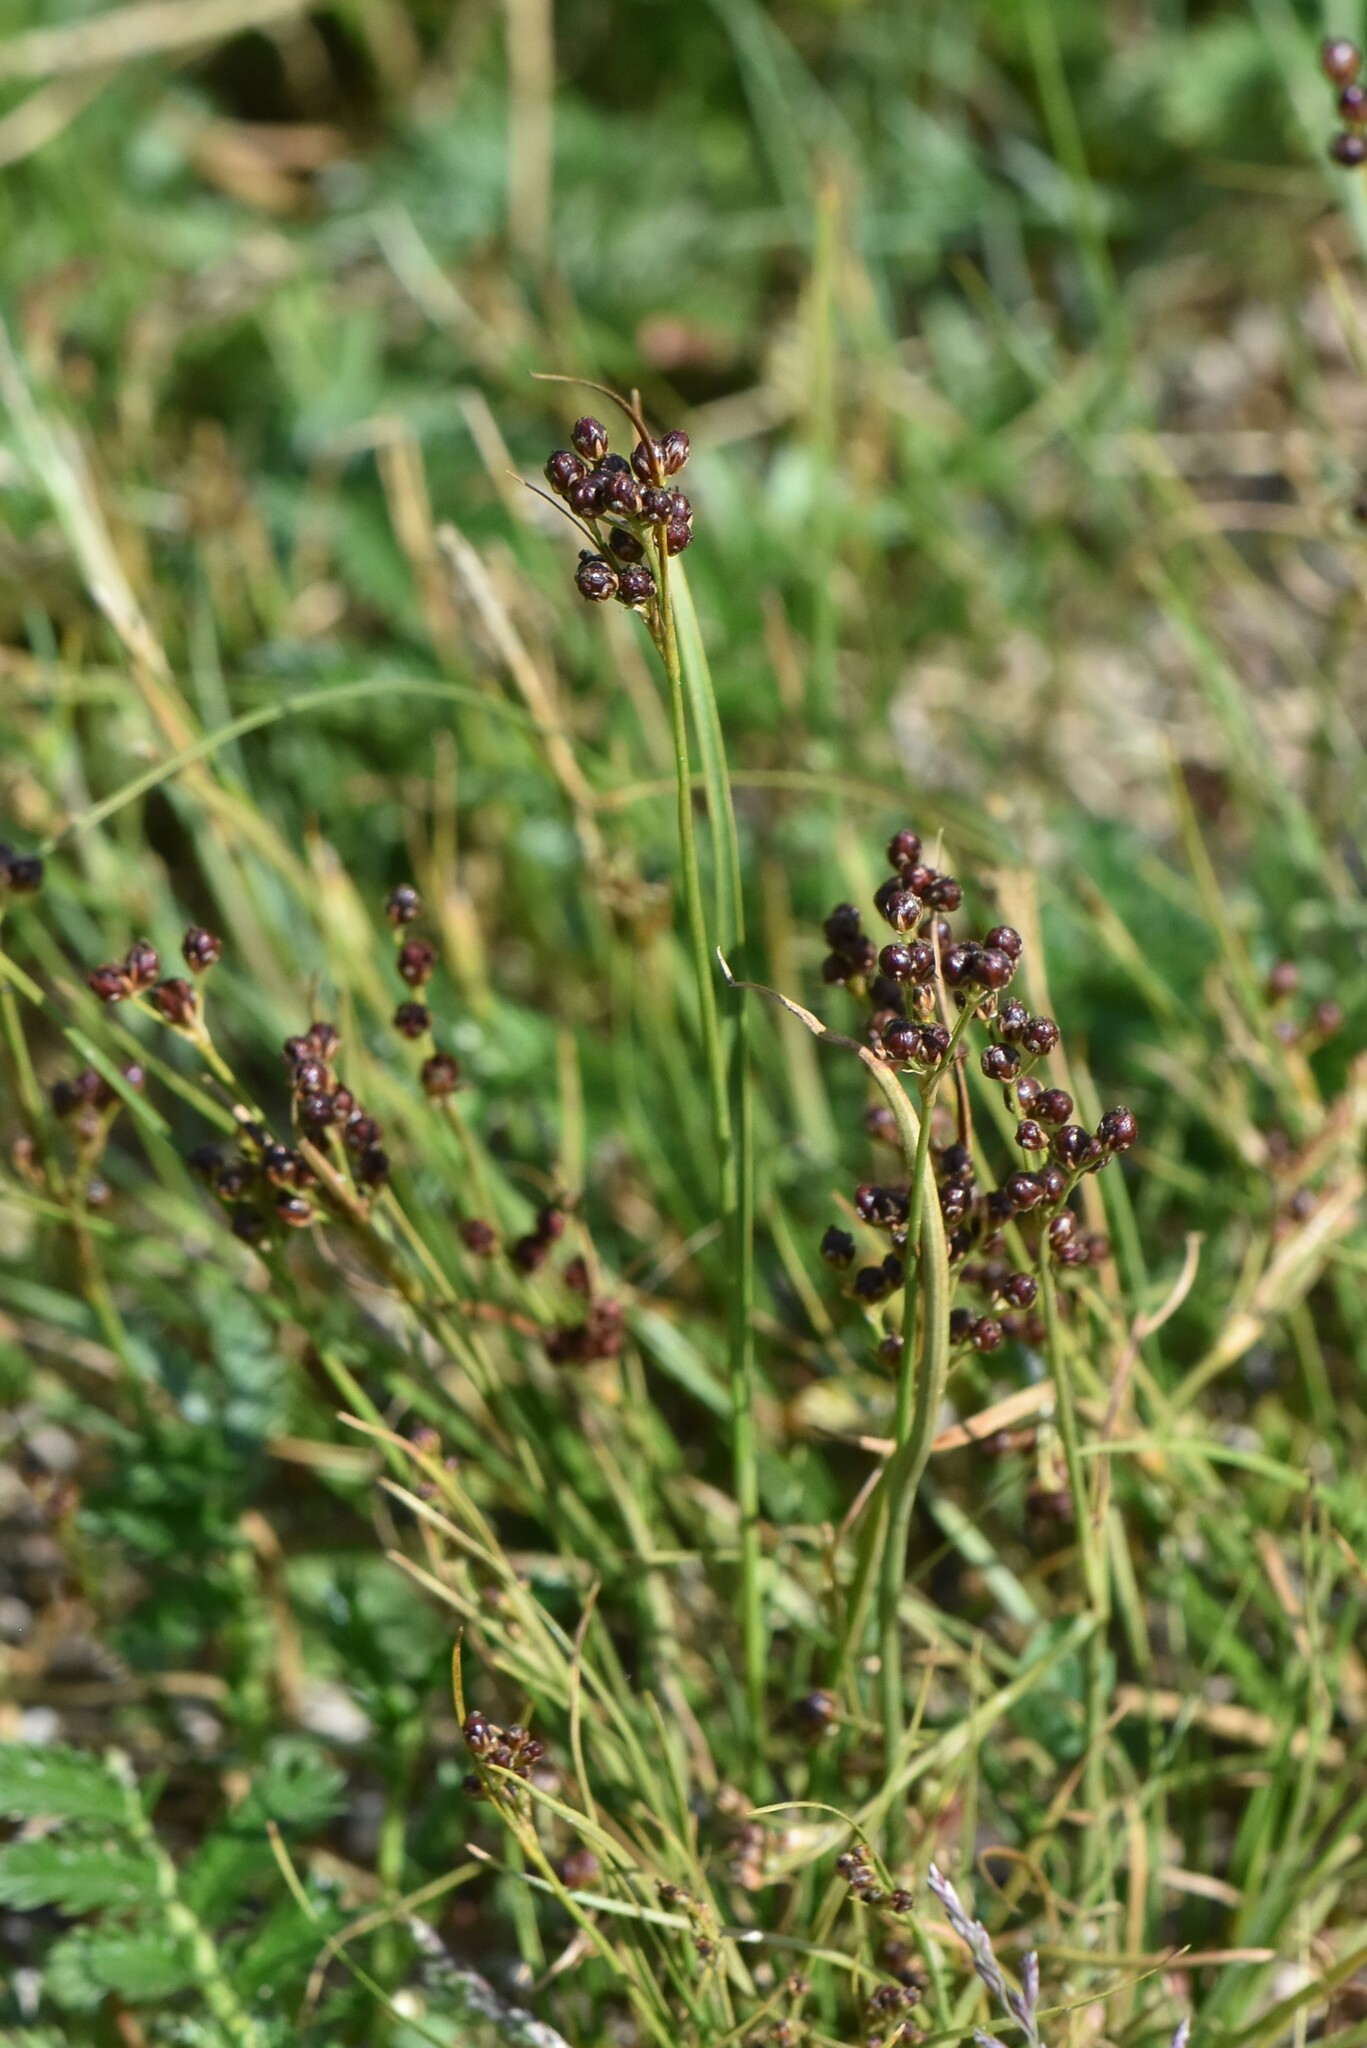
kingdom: Plantae
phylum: Tracheophyta
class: Liliopsida
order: Poales
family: Juncaceae
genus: Juncus
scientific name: Juncus compressus
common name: Round-fruited rush
